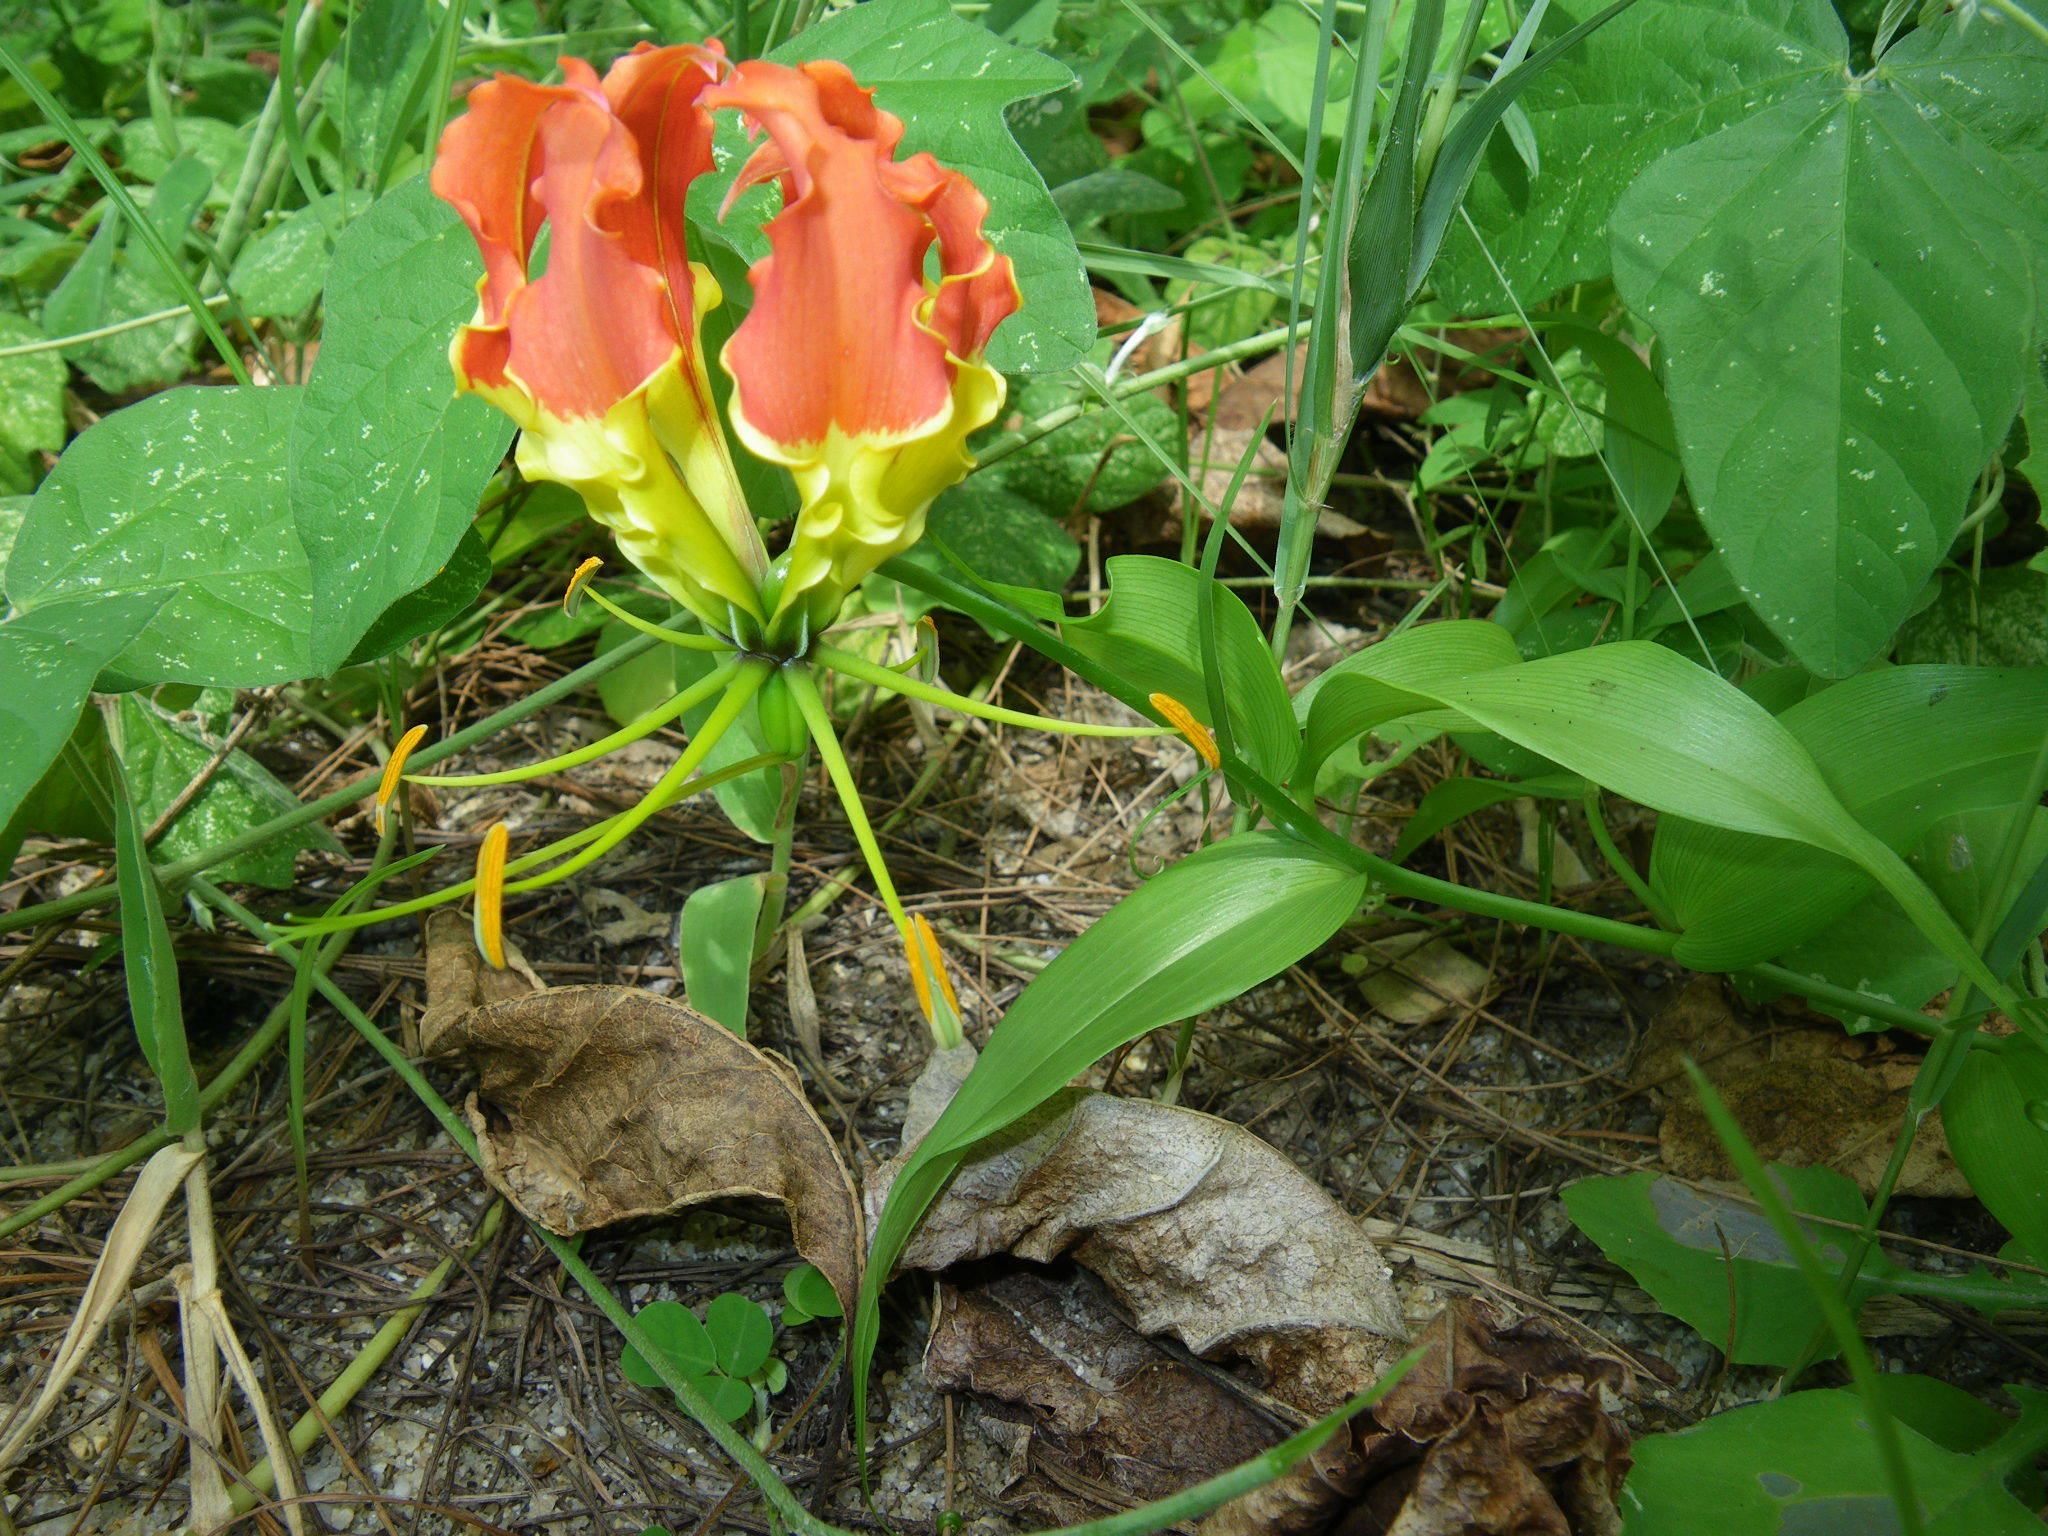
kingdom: Plantae
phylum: Tracheophyta
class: Liliopsida
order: Liliales
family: Colchicaceae
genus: Gloriosa
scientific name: Gloriosa superba
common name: Flame lily
